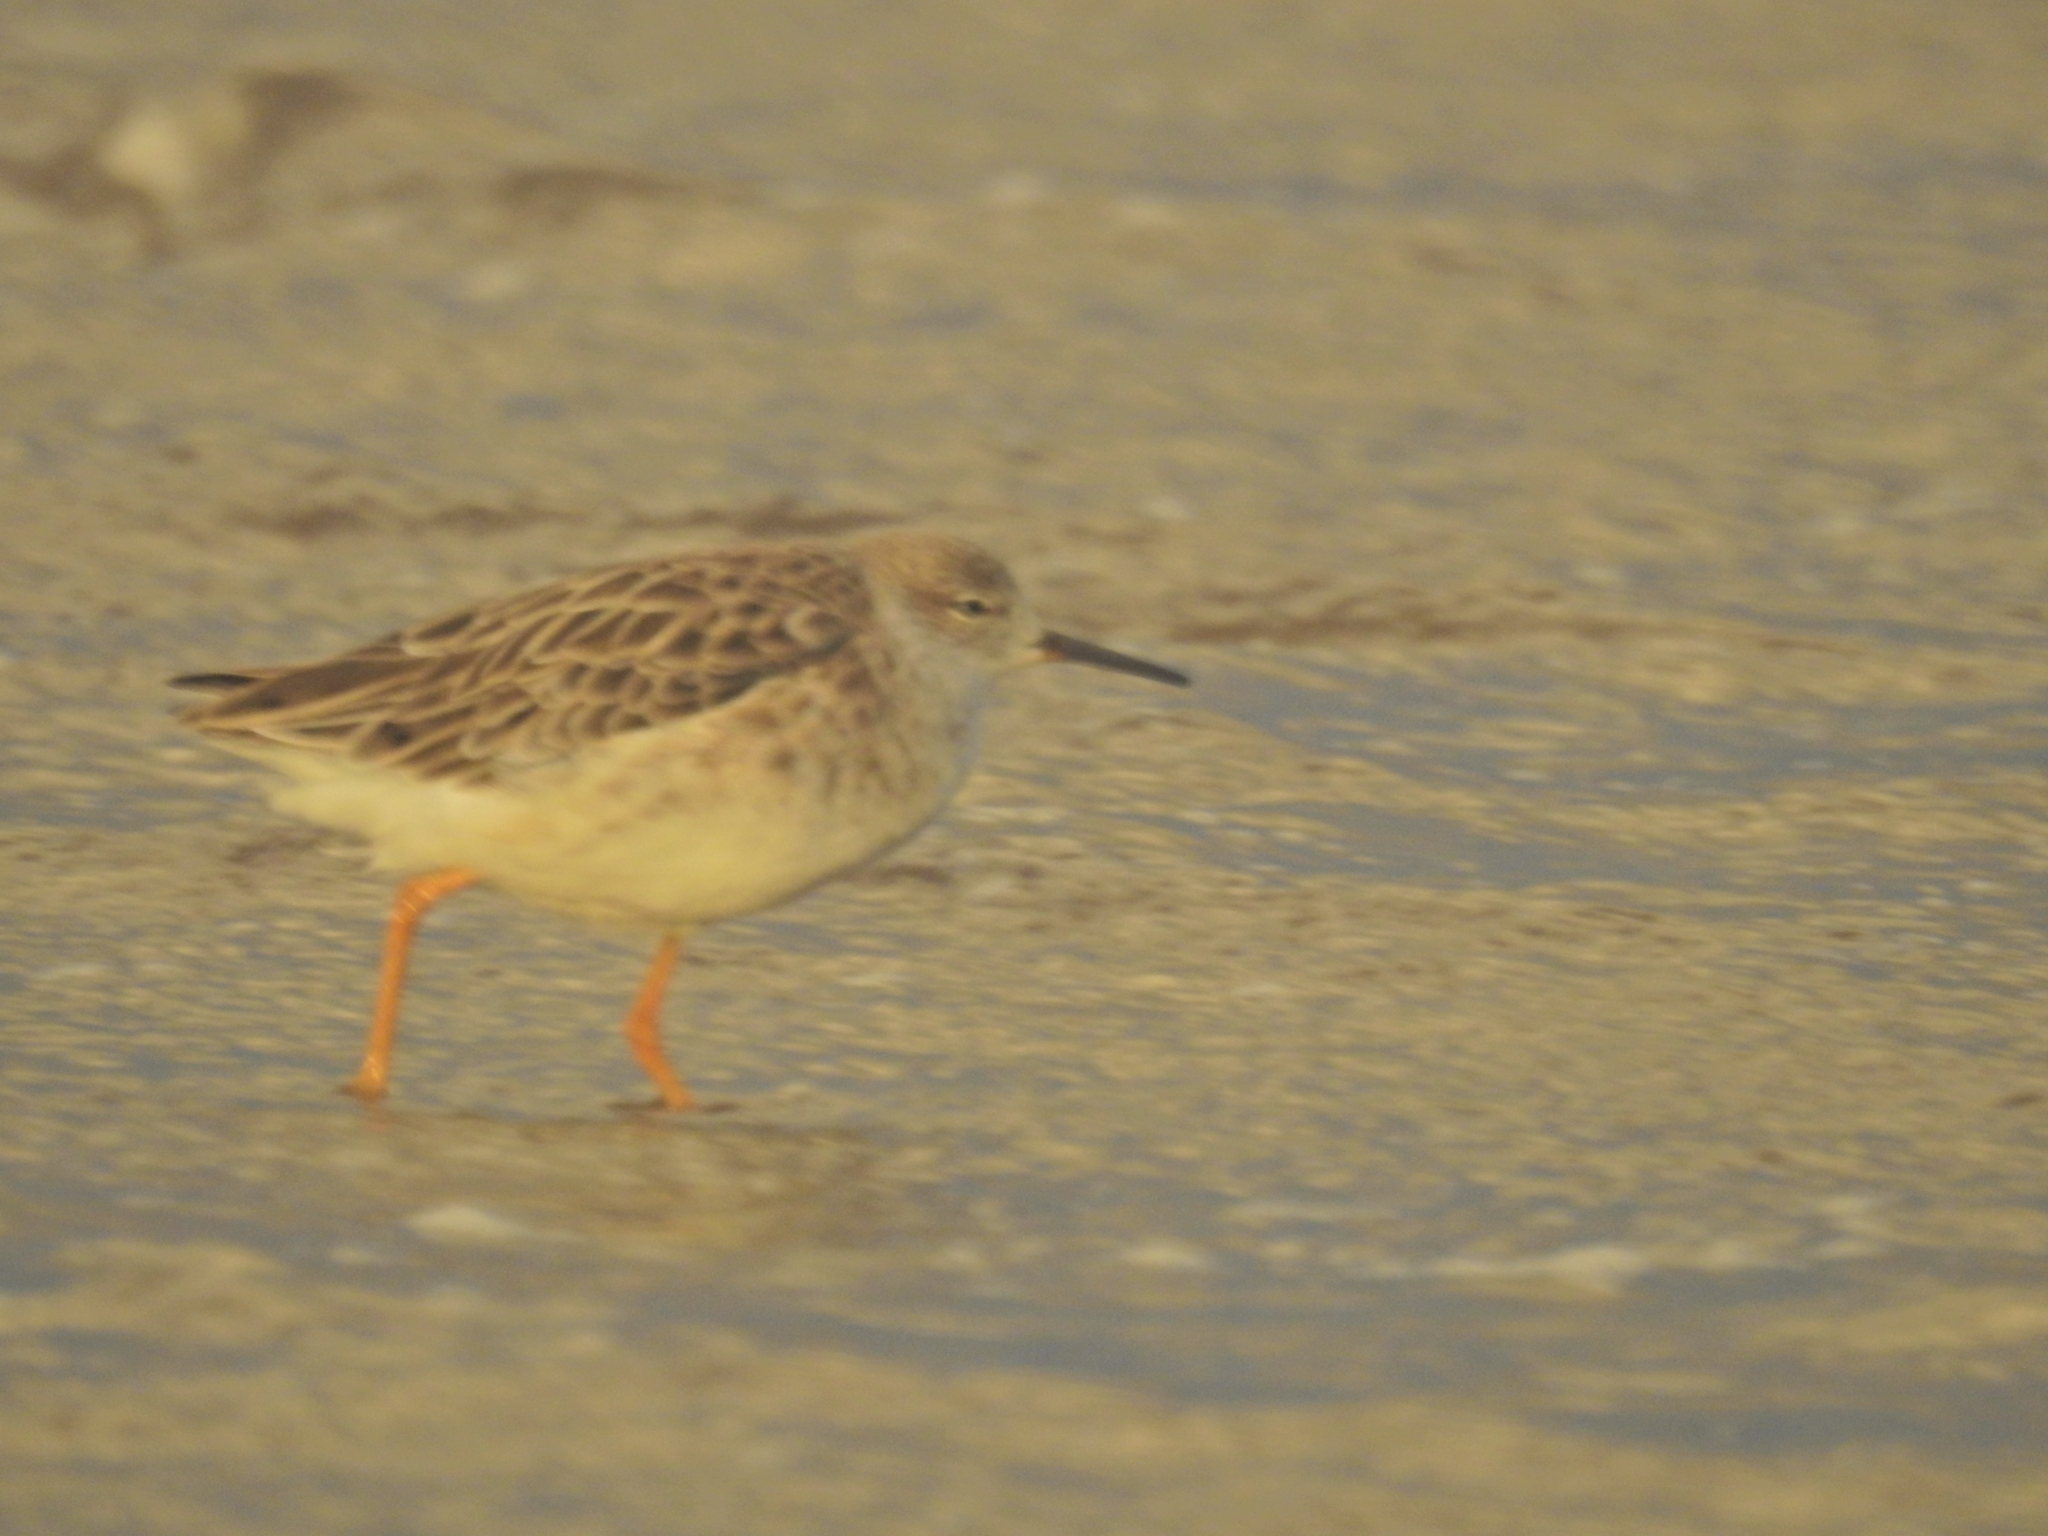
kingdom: Animalia
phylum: Chordata
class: Aves
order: Charadriiformes
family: Scolopacidae
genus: Calidris
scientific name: Calidris pugnax
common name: Ruff
